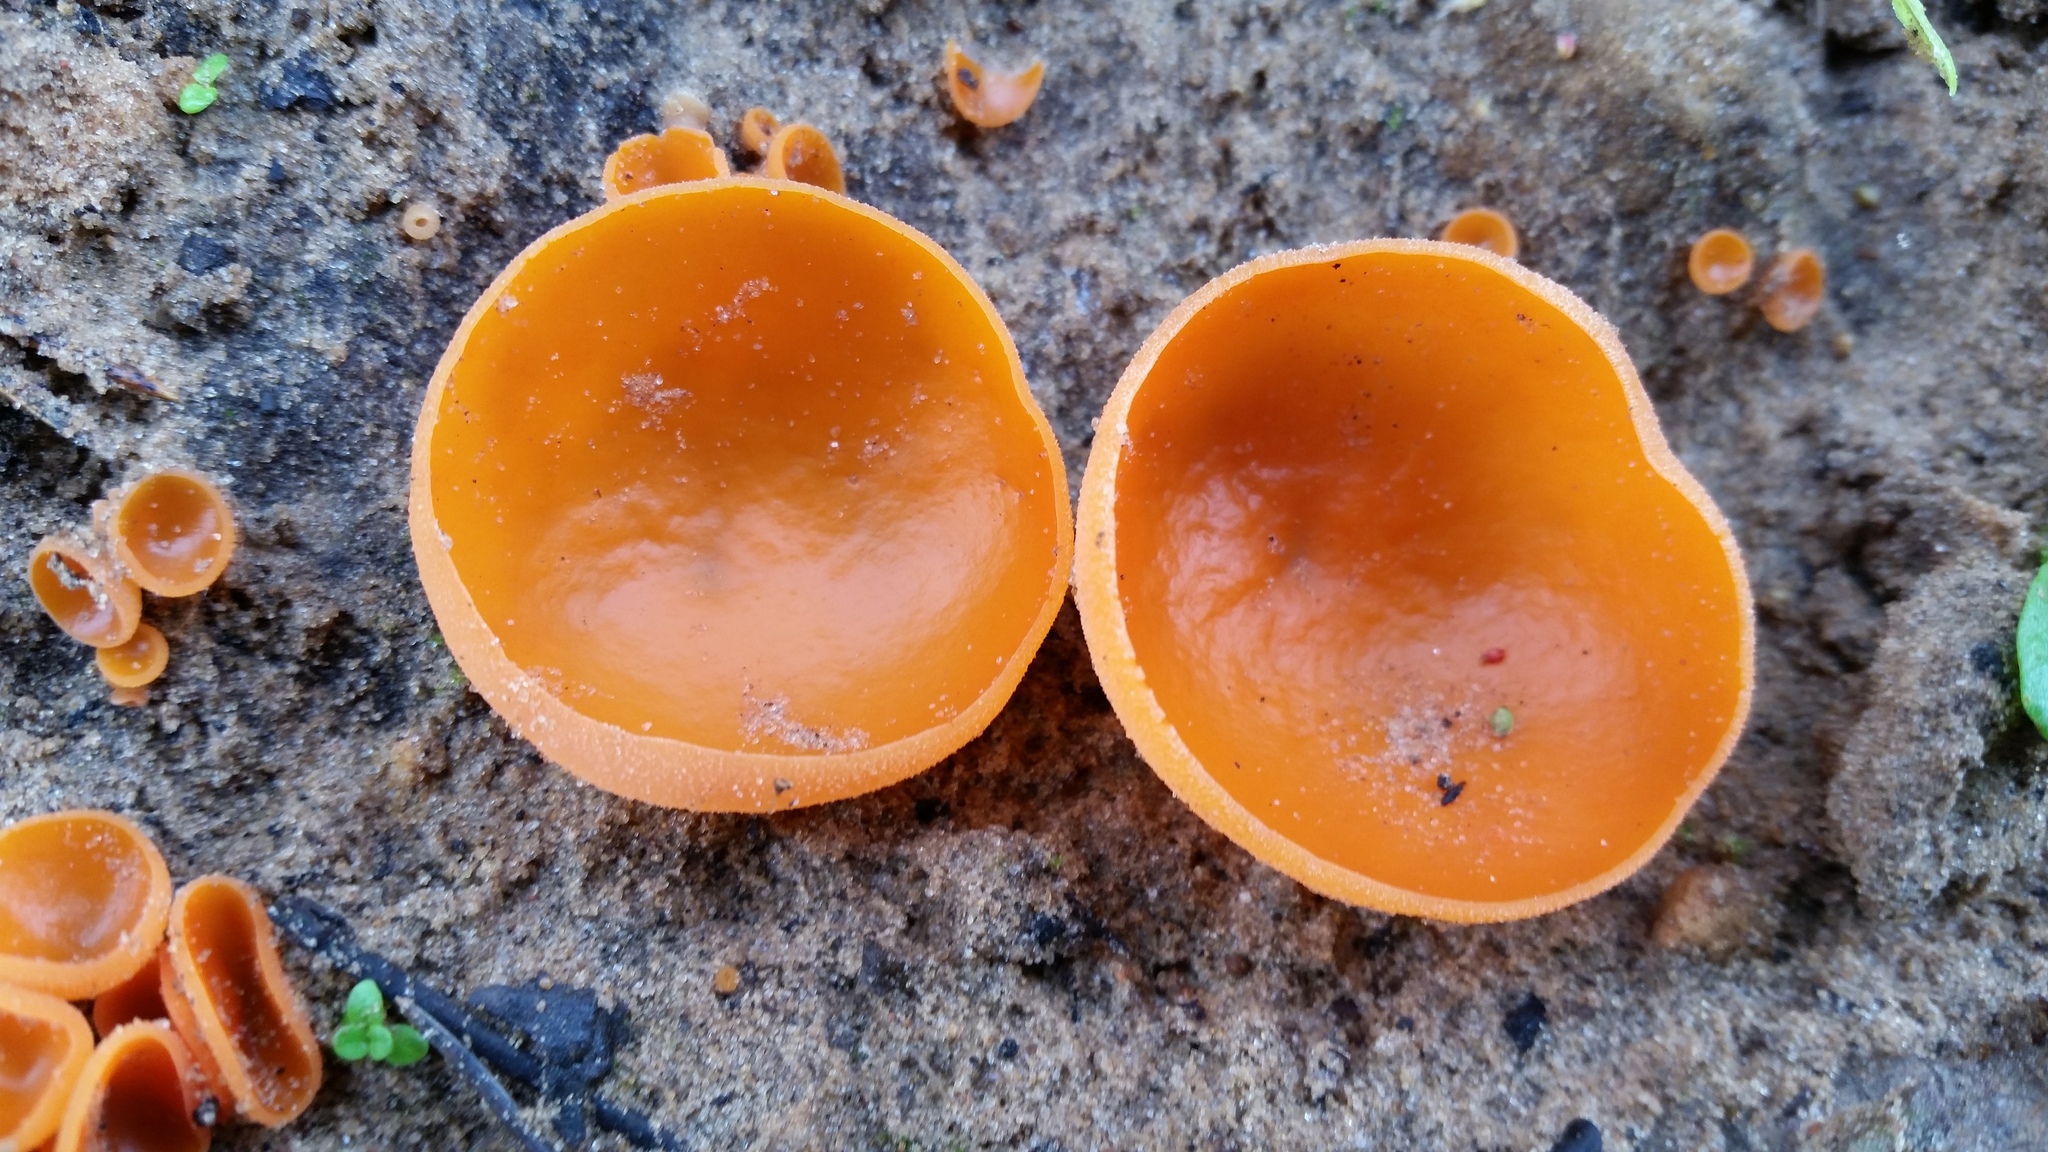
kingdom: Fungi
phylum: Ascomycota
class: Pezizomycetes
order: Pezizales
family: Pyronemataceae
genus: Aleuria
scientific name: Aleuria aurantia
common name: Orange peel fungus
